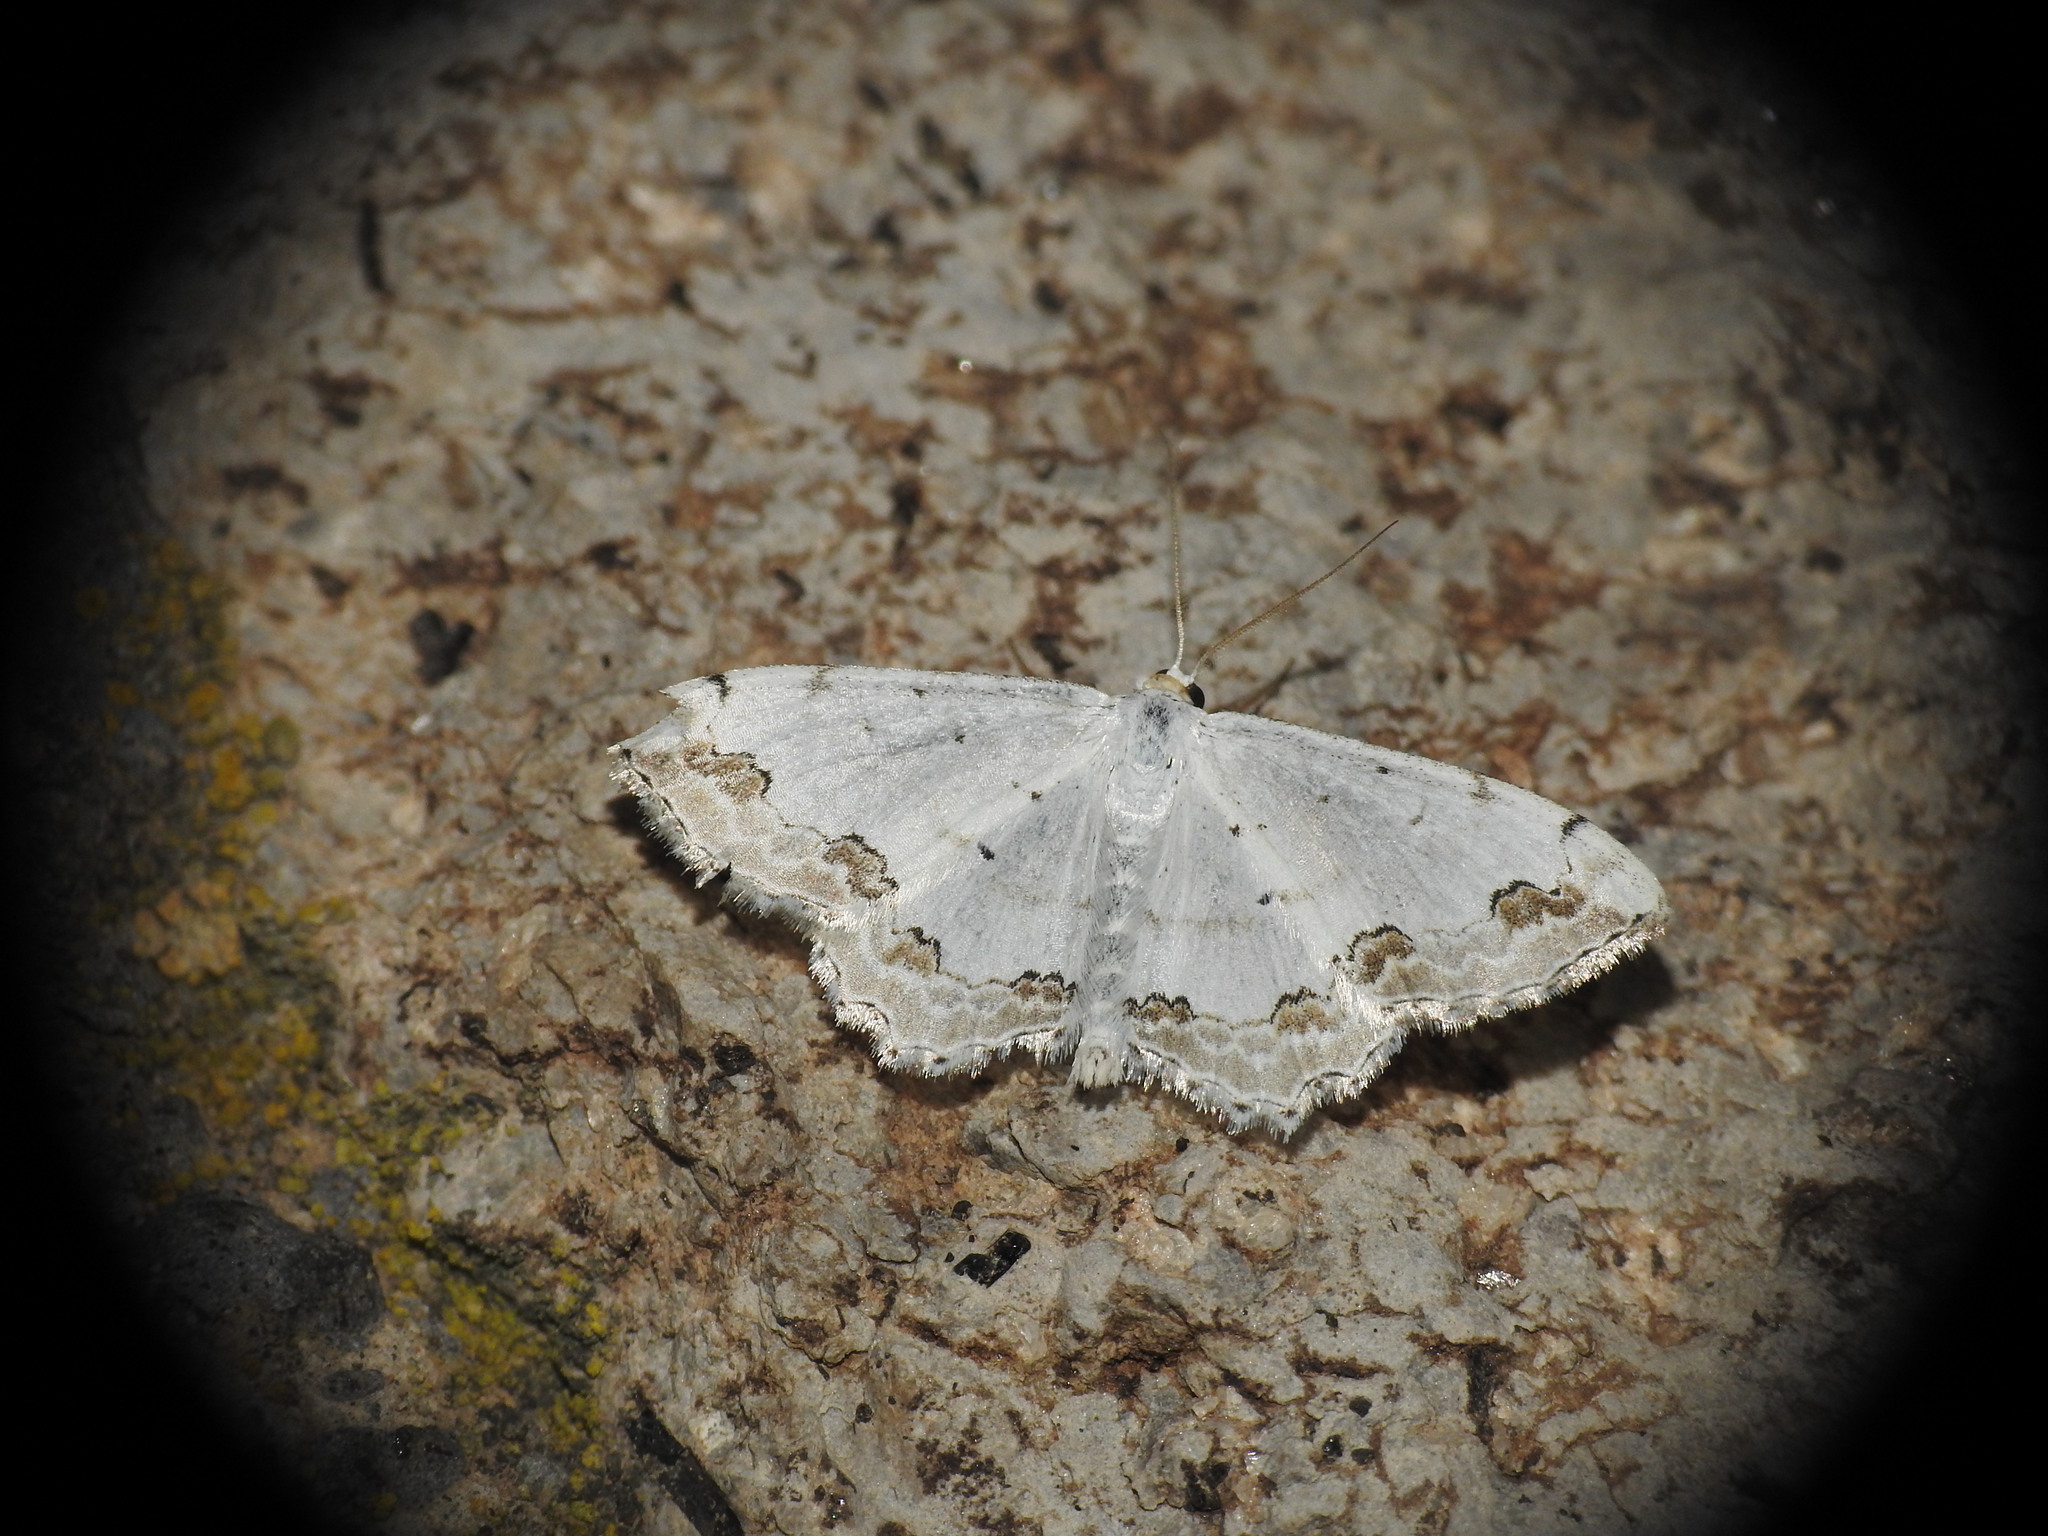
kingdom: Animalia
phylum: Arthropoda
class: Insecta
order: Lepidoptera
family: Geometridae
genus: Scopula
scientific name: Scopula ornata
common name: Lace border
